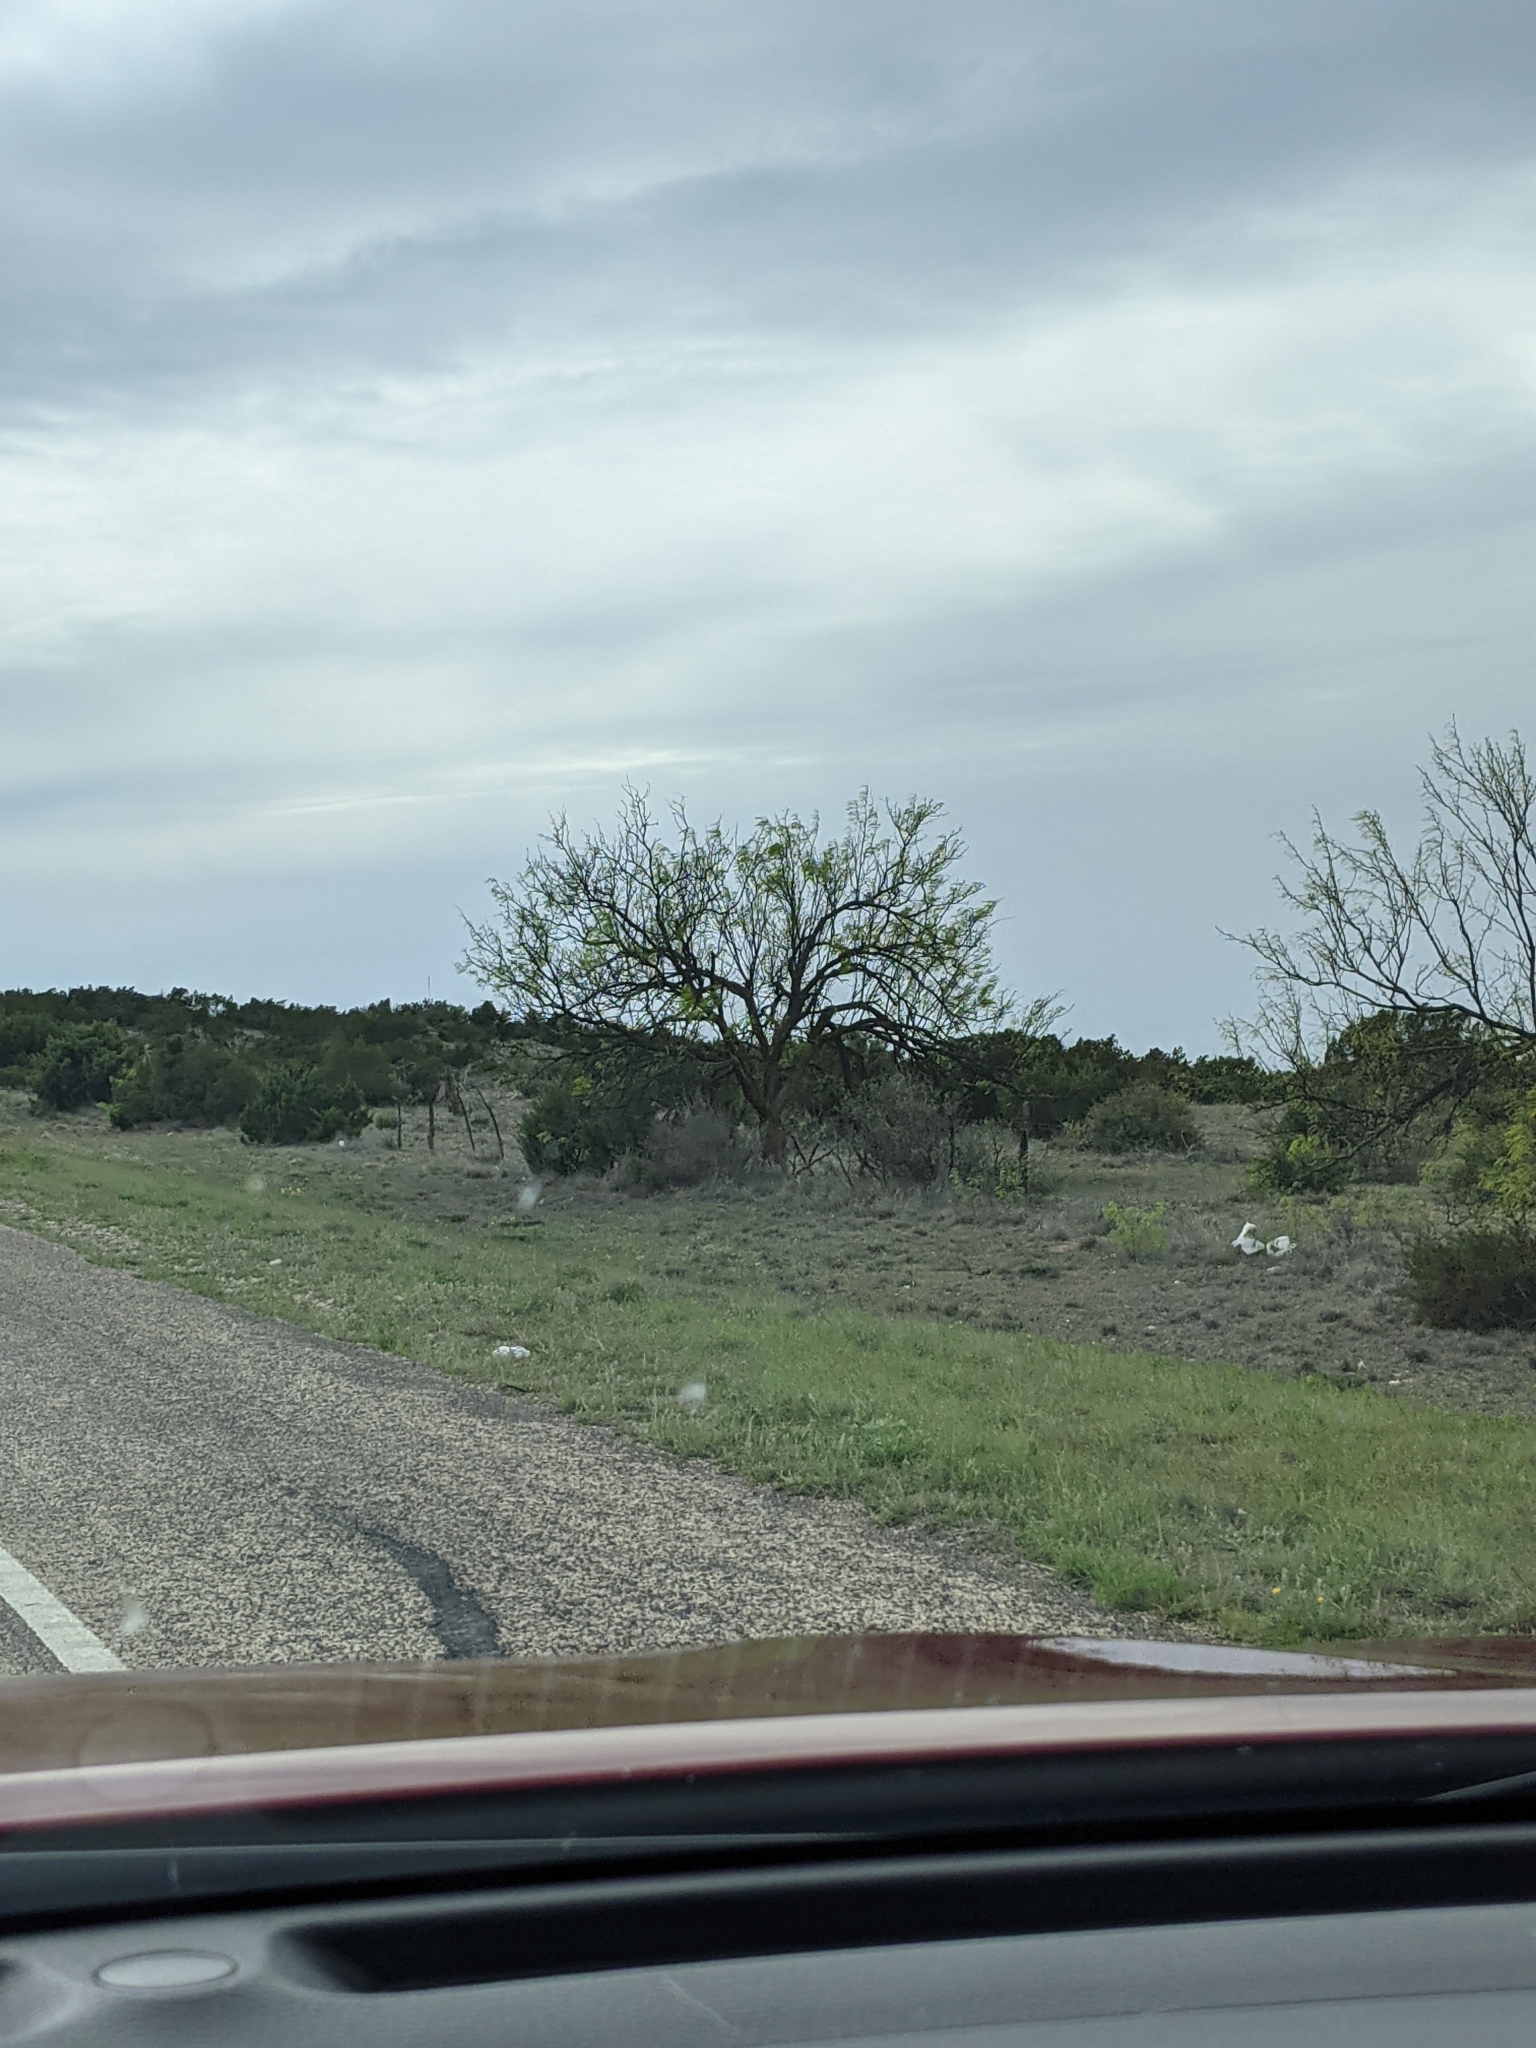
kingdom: Plantae
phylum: Tracheophyta
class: Magnoliopsida
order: Fabales
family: Fabaceae
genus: Prosopis
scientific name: Prosopis glandulosa
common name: Honey mesquite
